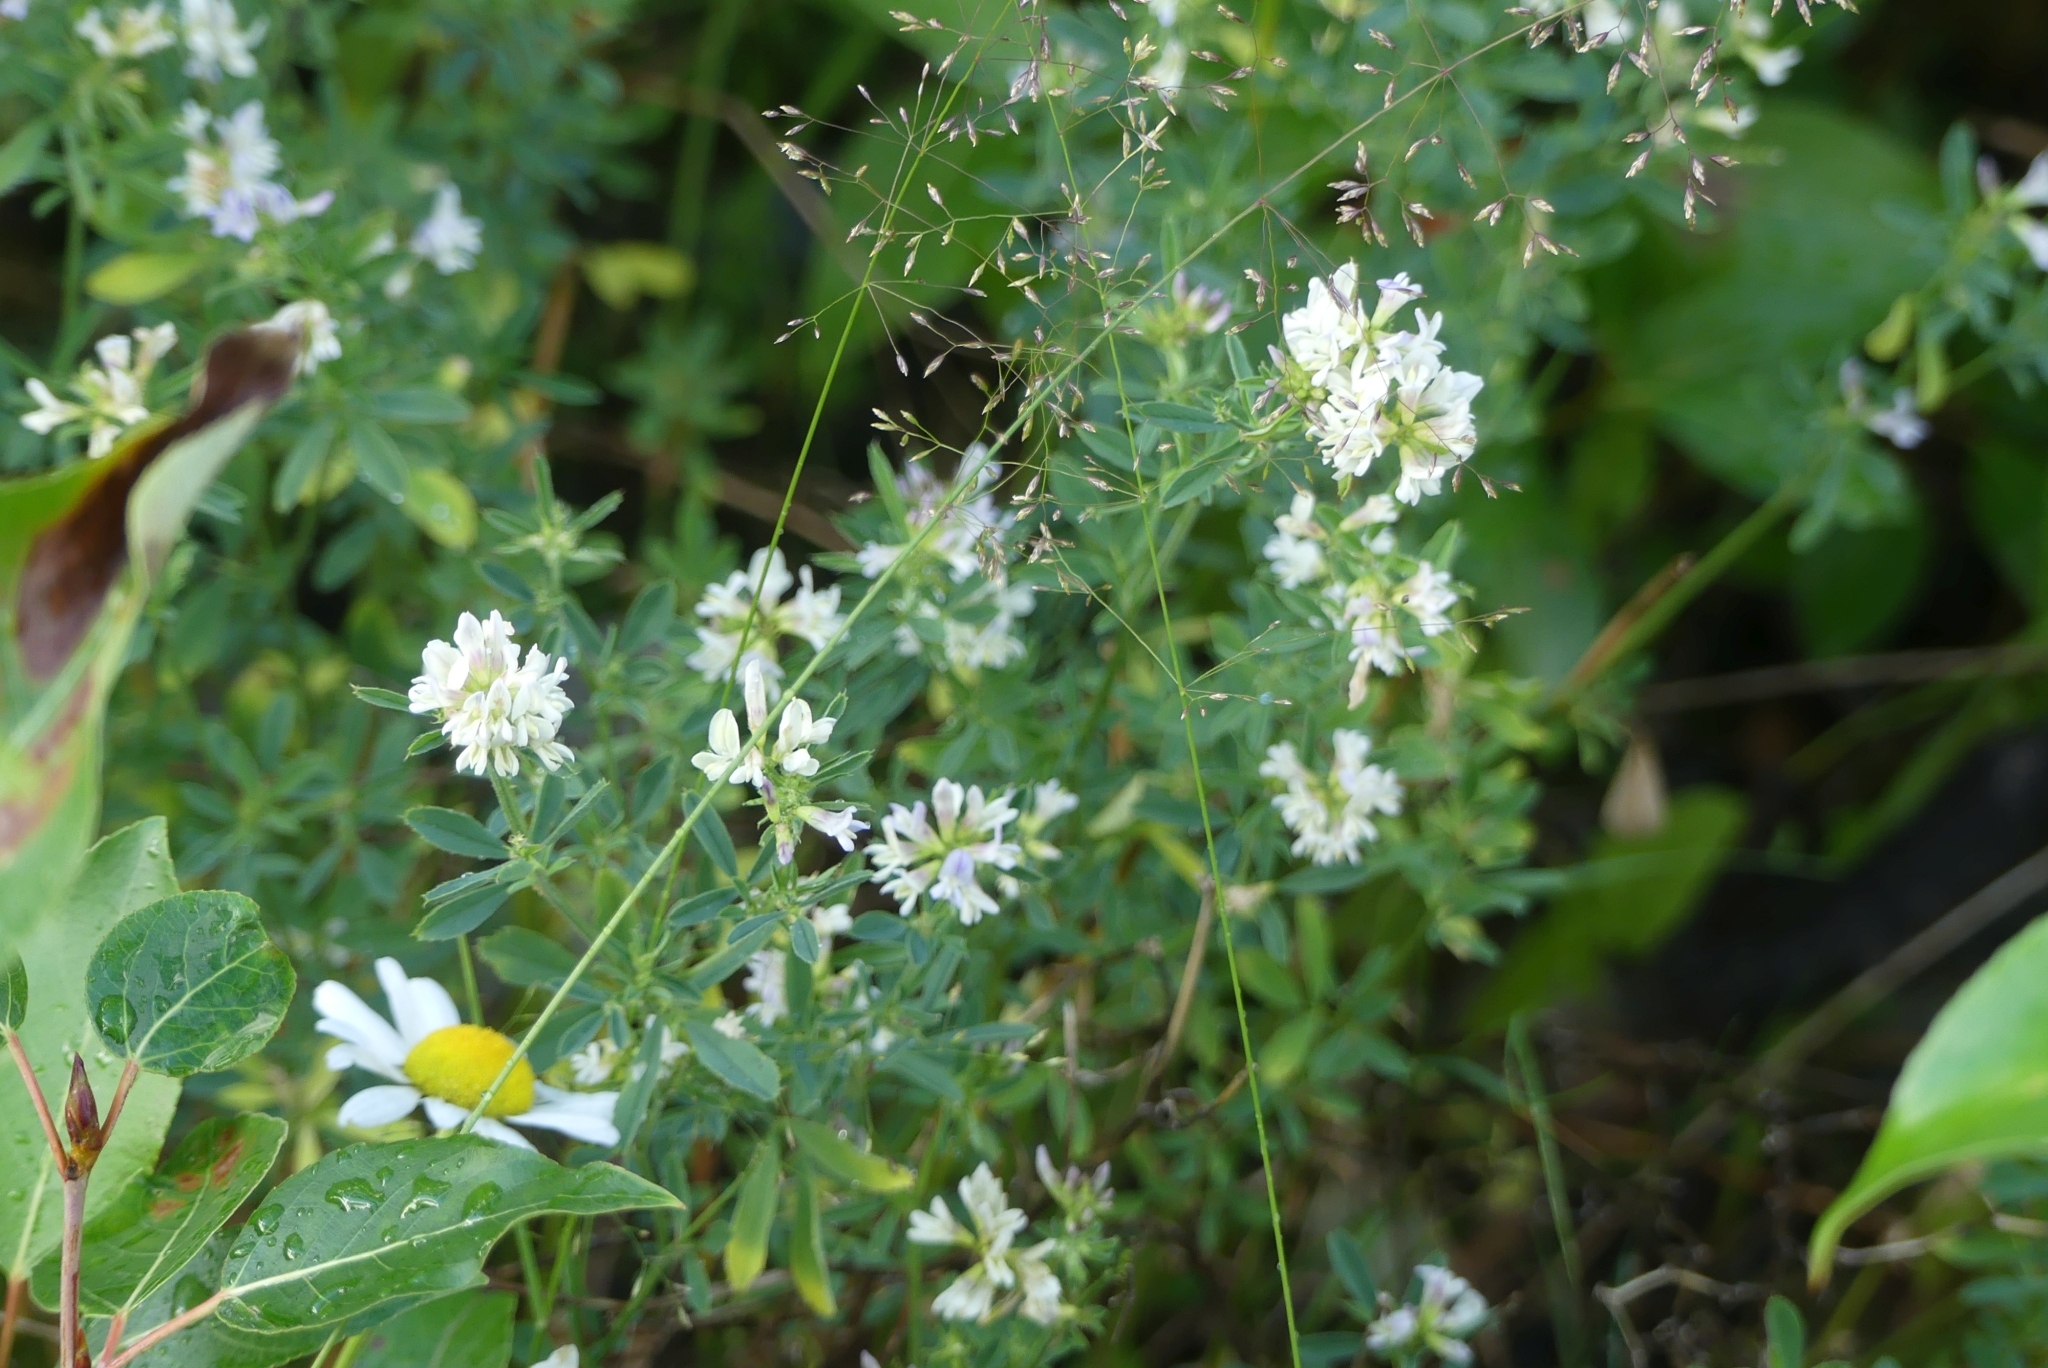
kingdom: Plantae
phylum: Tracheophyta
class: Magnoliopsida
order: Fabales
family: Fabaceae
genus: Medicago
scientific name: Medicago varia
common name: Sand lucerne
